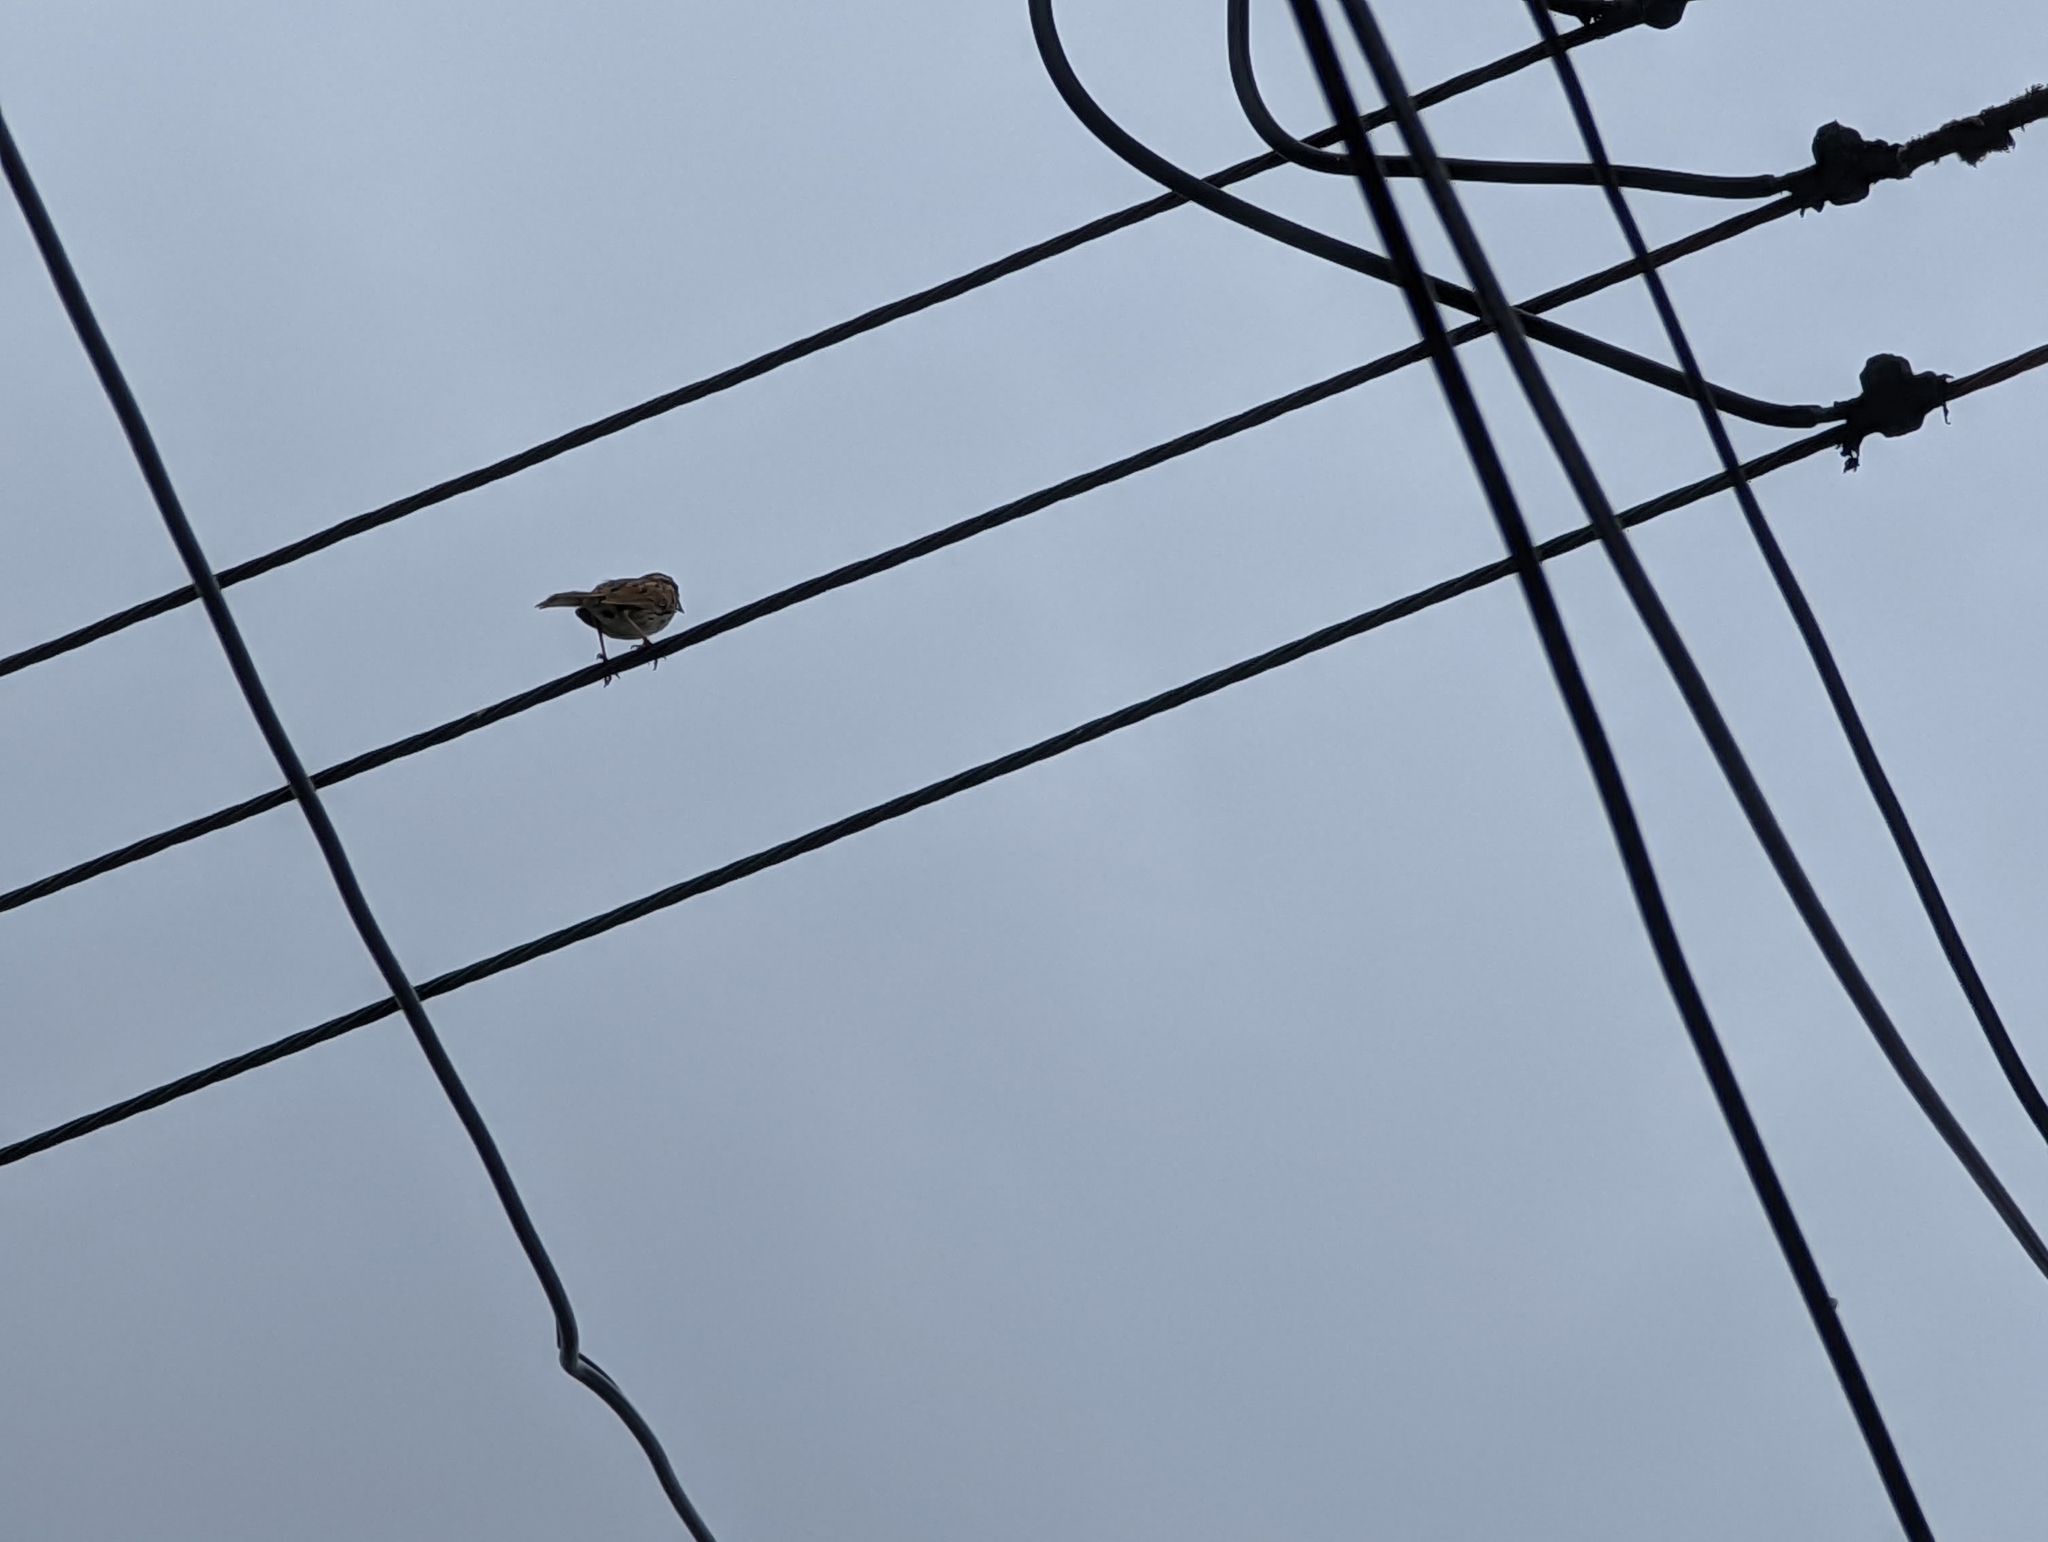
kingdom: Animalia
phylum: Chordata
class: Aves
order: Passeriformes
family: Passerellidae
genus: Melospiza
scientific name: Melospiza melodia
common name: Song sparrow
